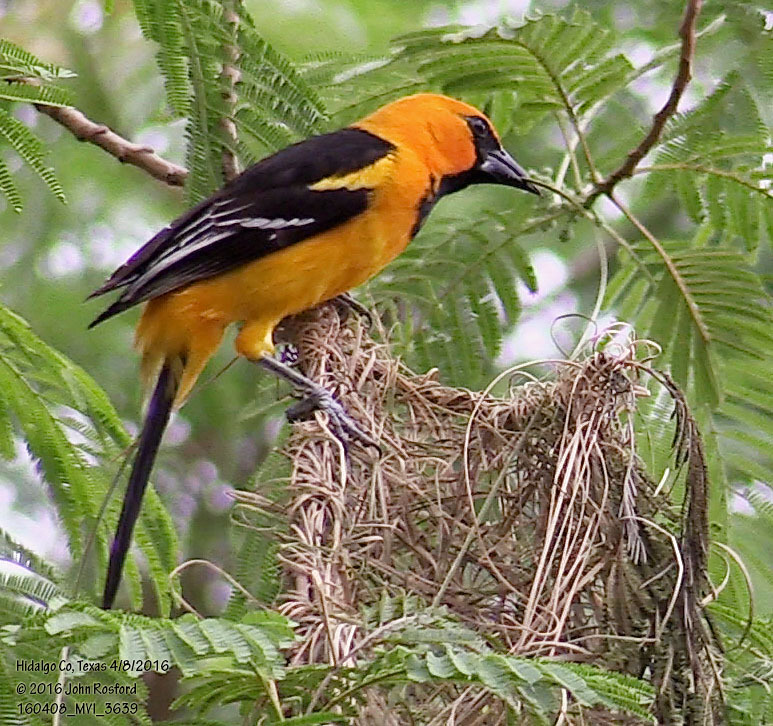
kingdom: Animalia
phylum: Chordata
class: Aves
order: Passeriformes
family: Icteridae
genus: Icterus
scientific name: Icterus gularis
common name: Altamira oriole
